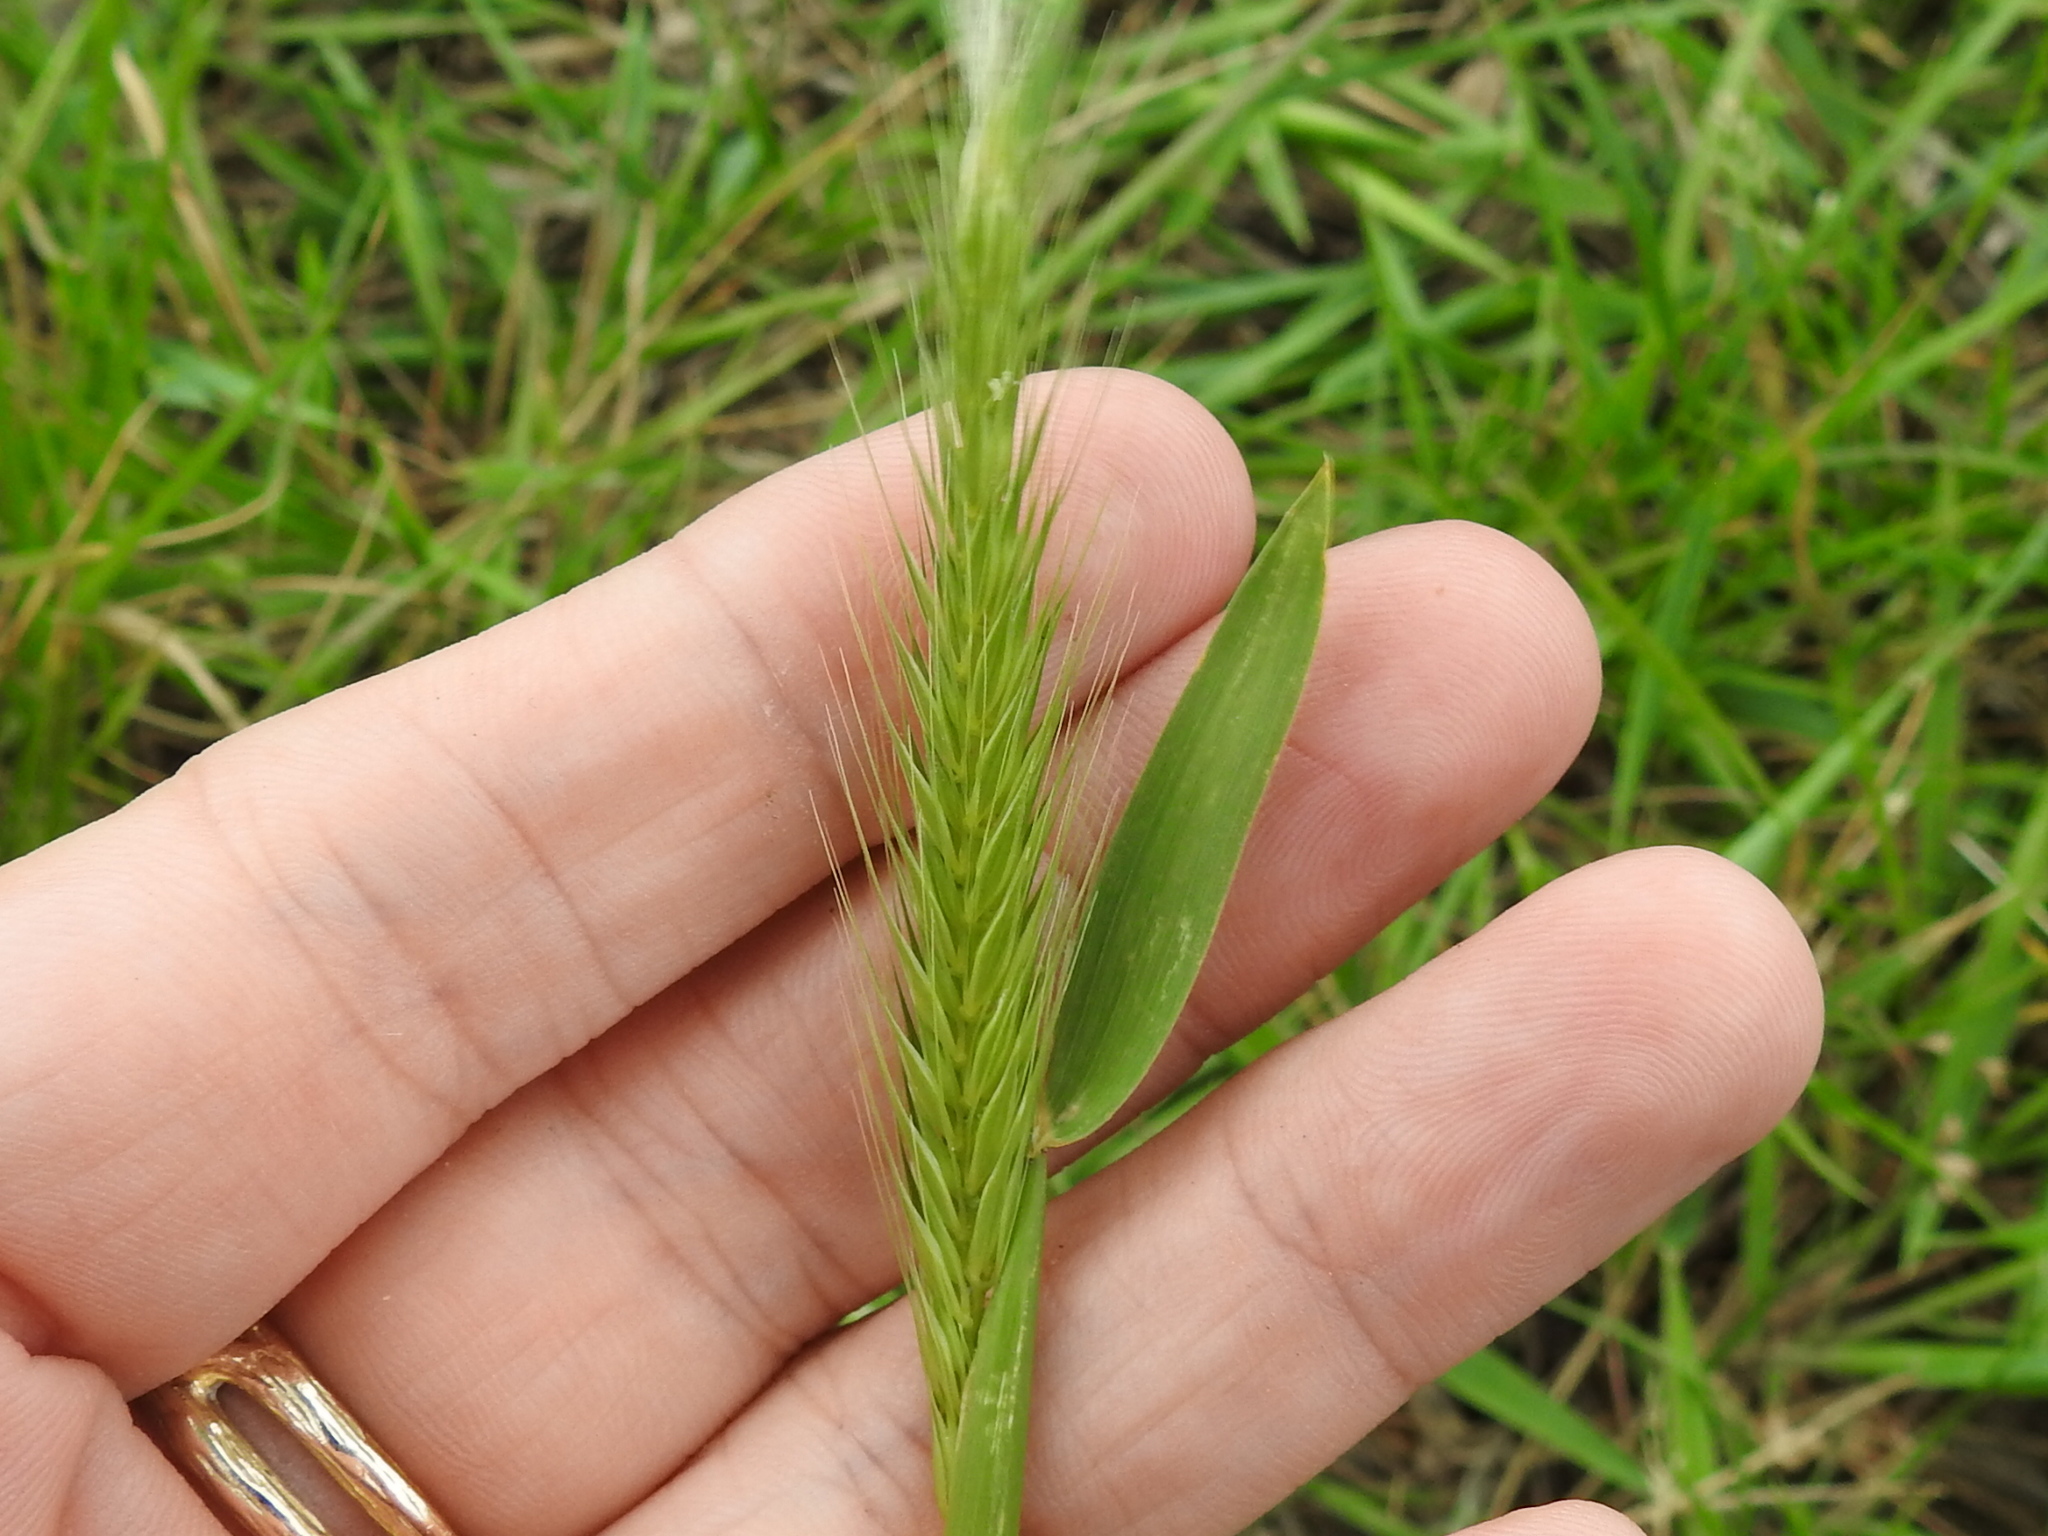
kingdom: Plantae
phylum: Tracheophyta
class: Liliopsida
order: Poales
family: Poaceae
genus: Hordeum
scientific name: Hordeum pusillum
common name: Little barley
